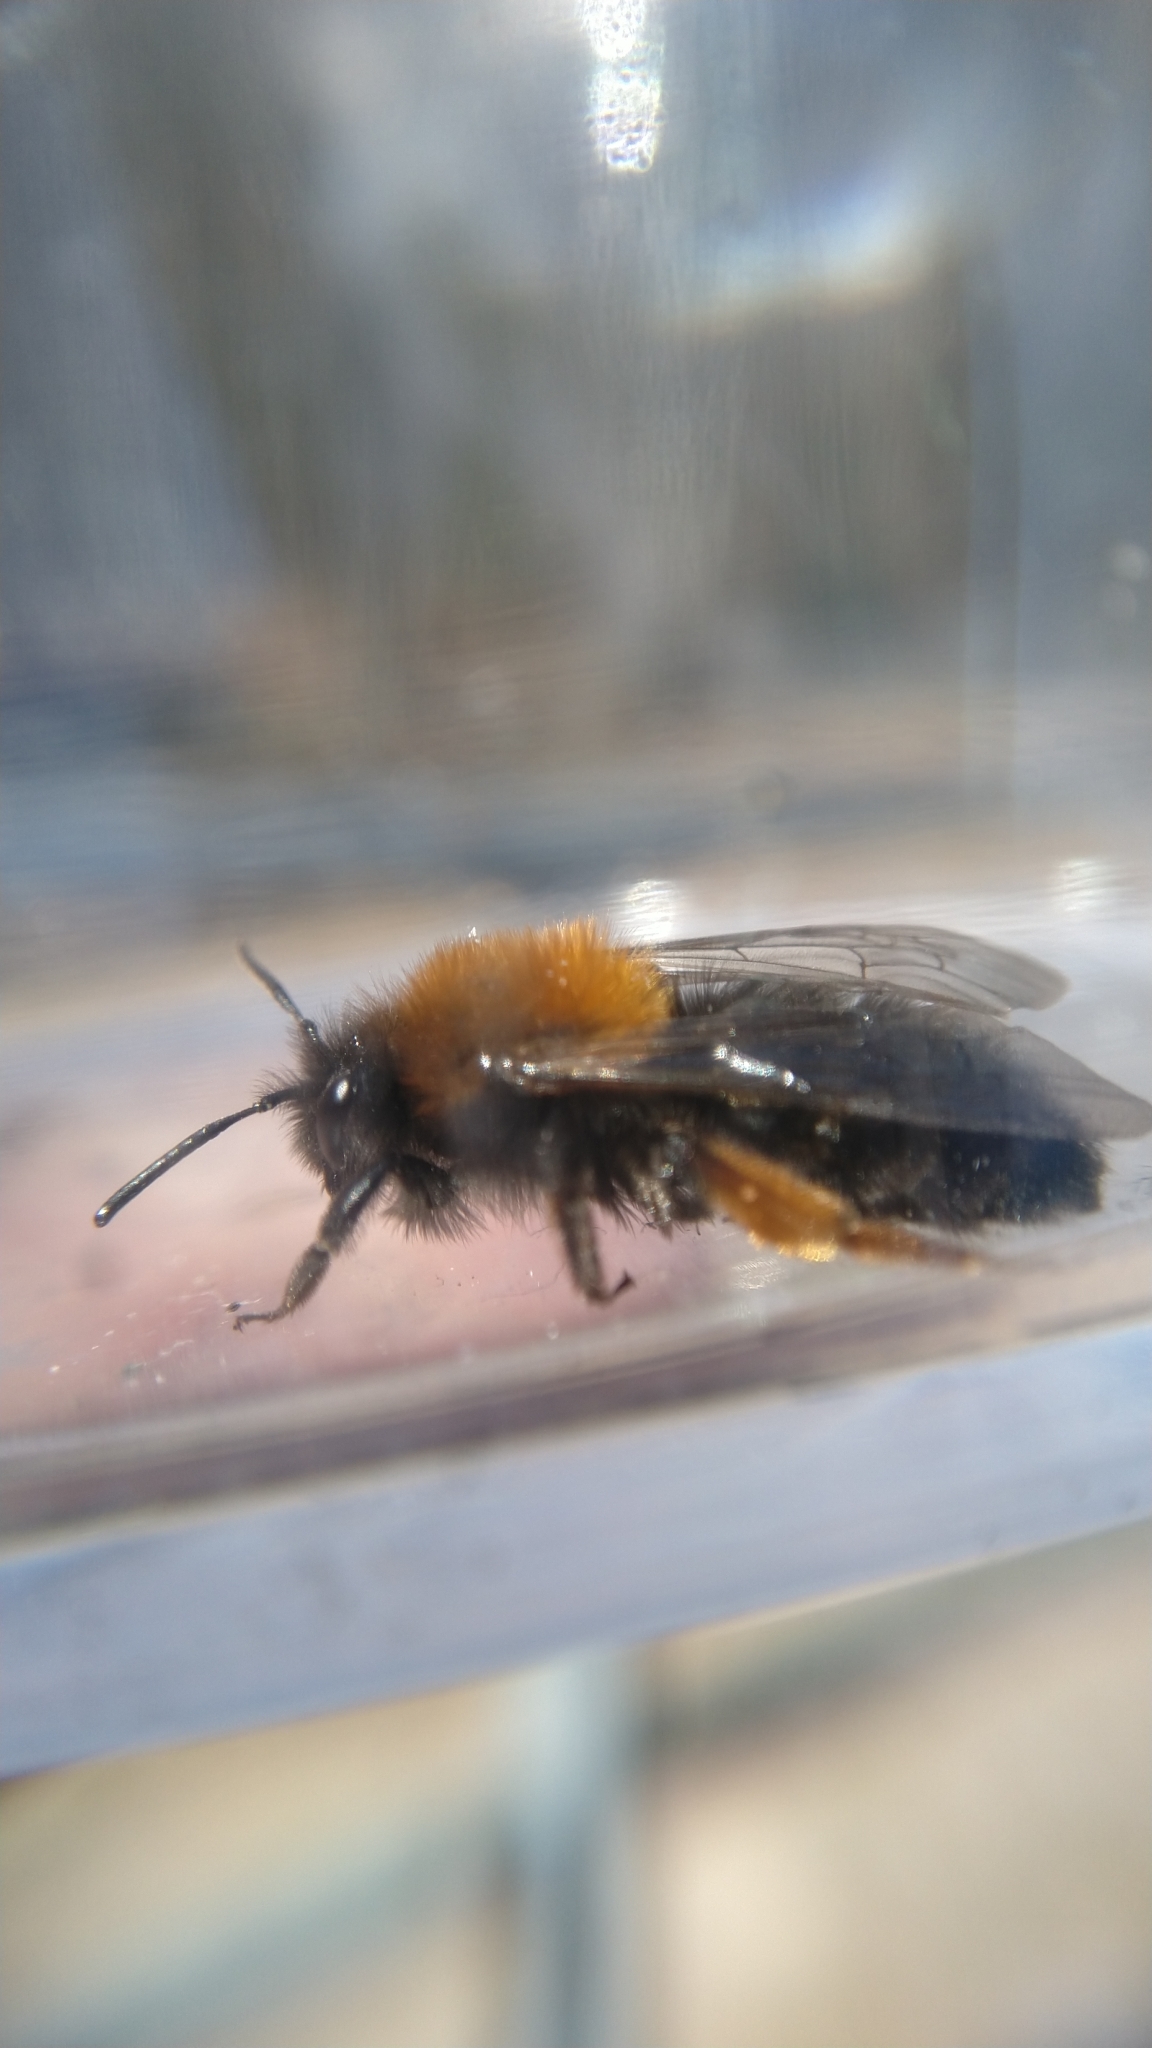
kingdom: Animalia
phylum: Arthropoda
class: Insecta
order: Hymenoptera
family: Andrenidae
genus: Andrena
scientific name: Andrena clarkella
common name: Clarke's mining bee
